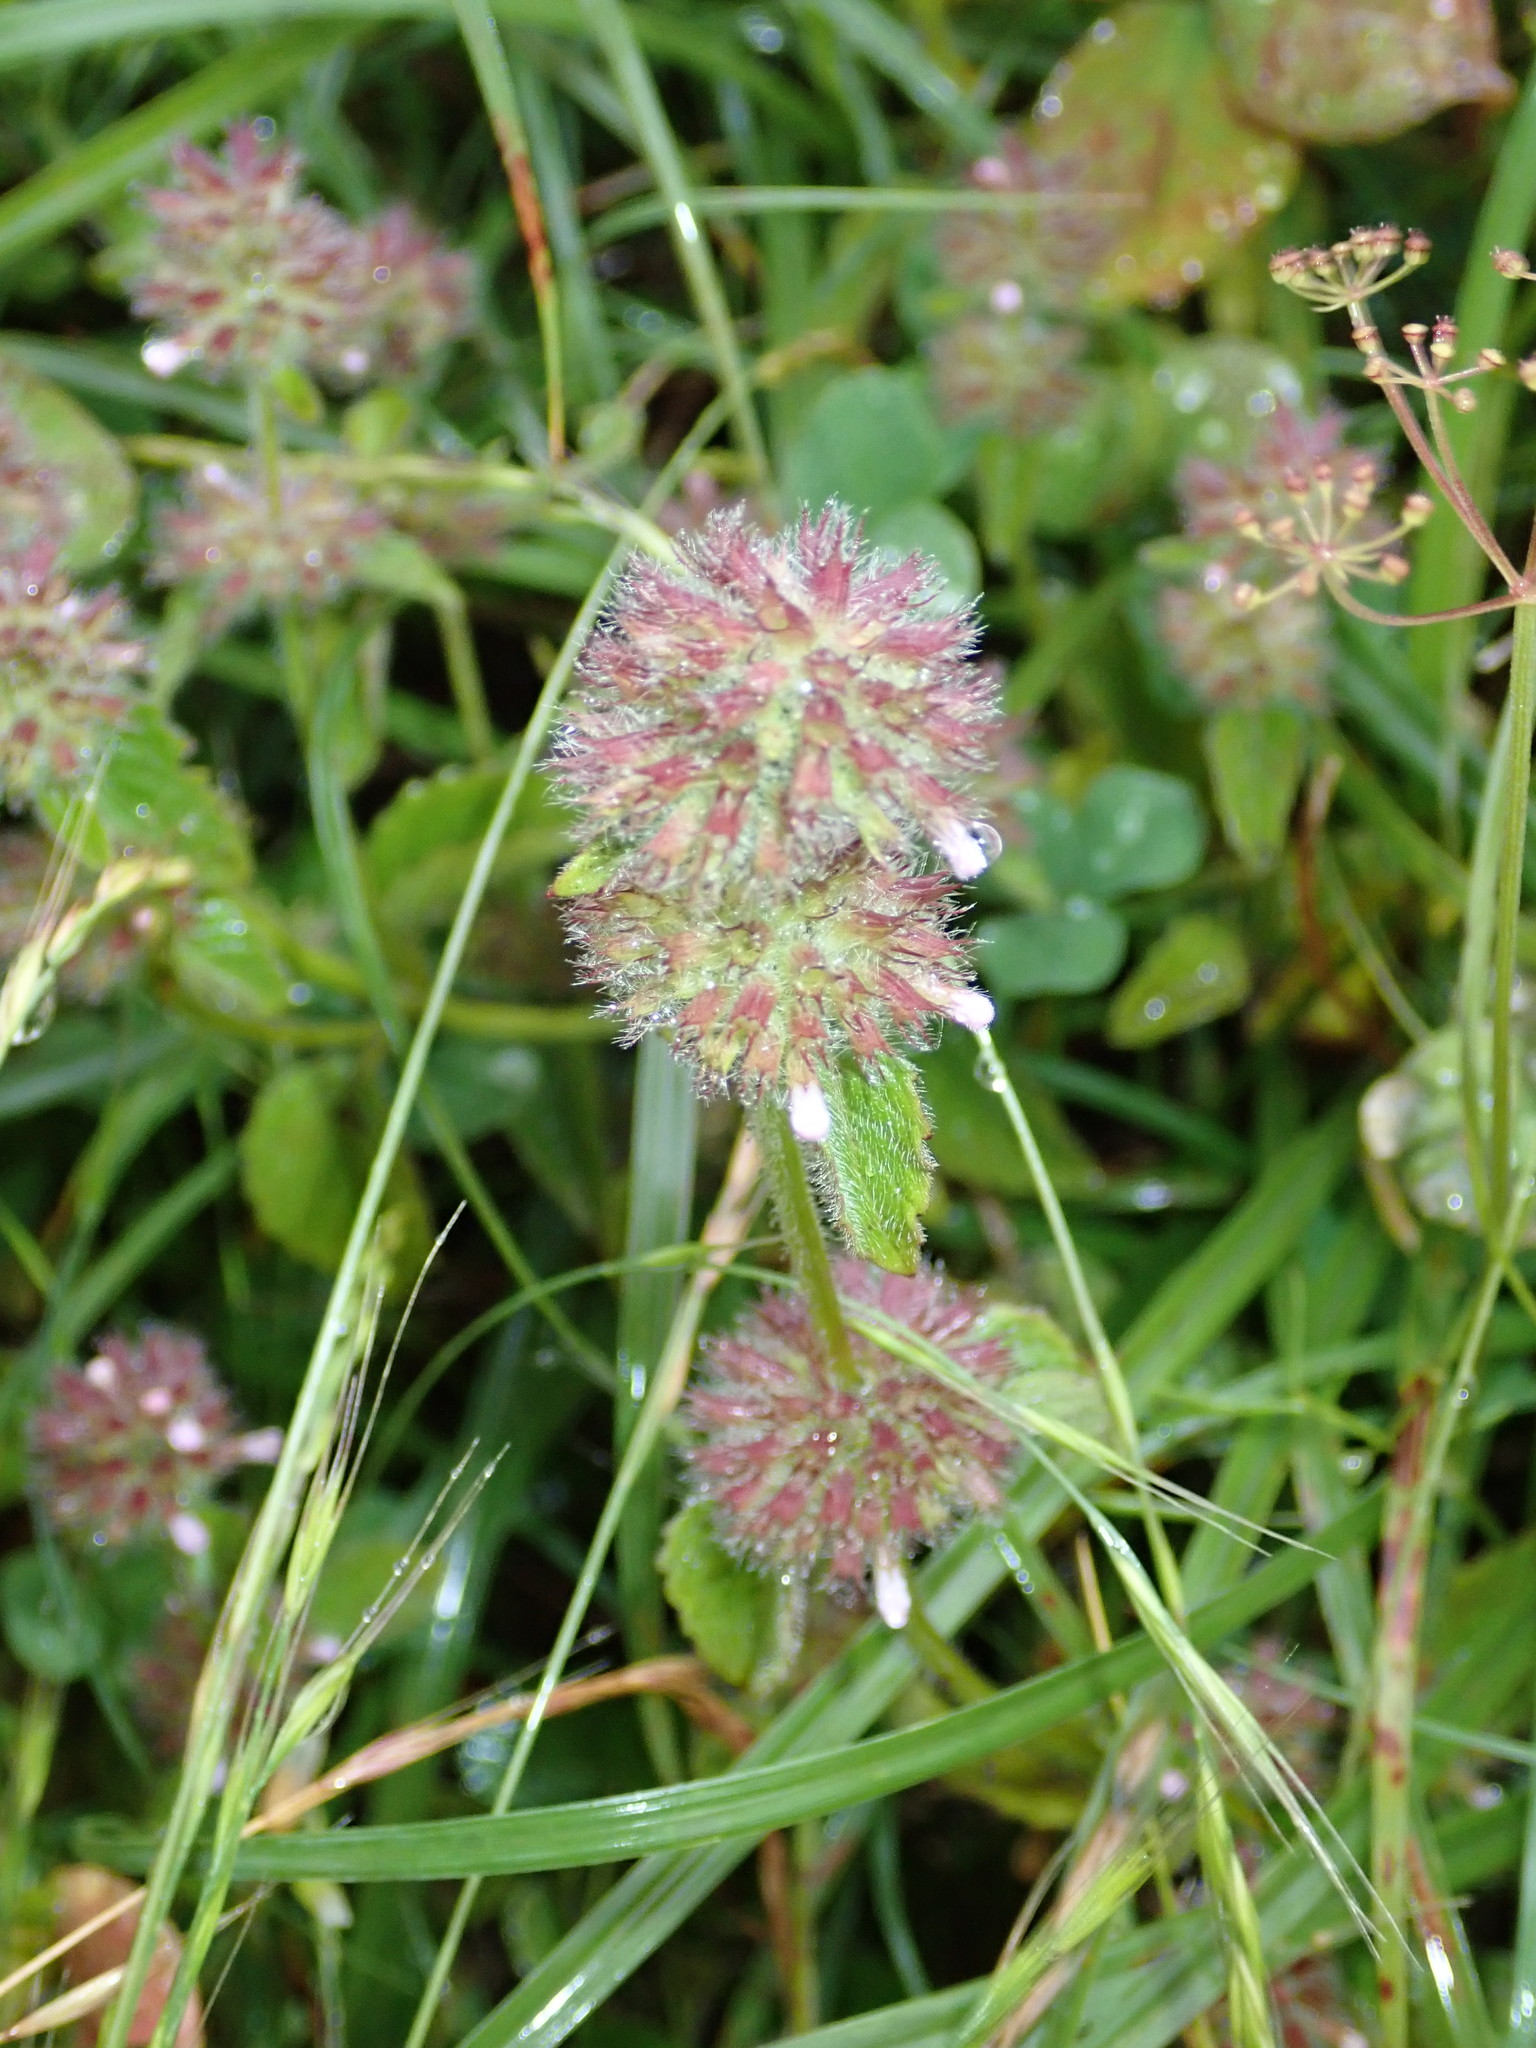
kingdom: Plantae
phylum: Tracheophyta
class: Magnoliopsida
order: Lamiales
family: Lamiaceae
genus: Clinopodium
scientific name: Clinopodium chinense
